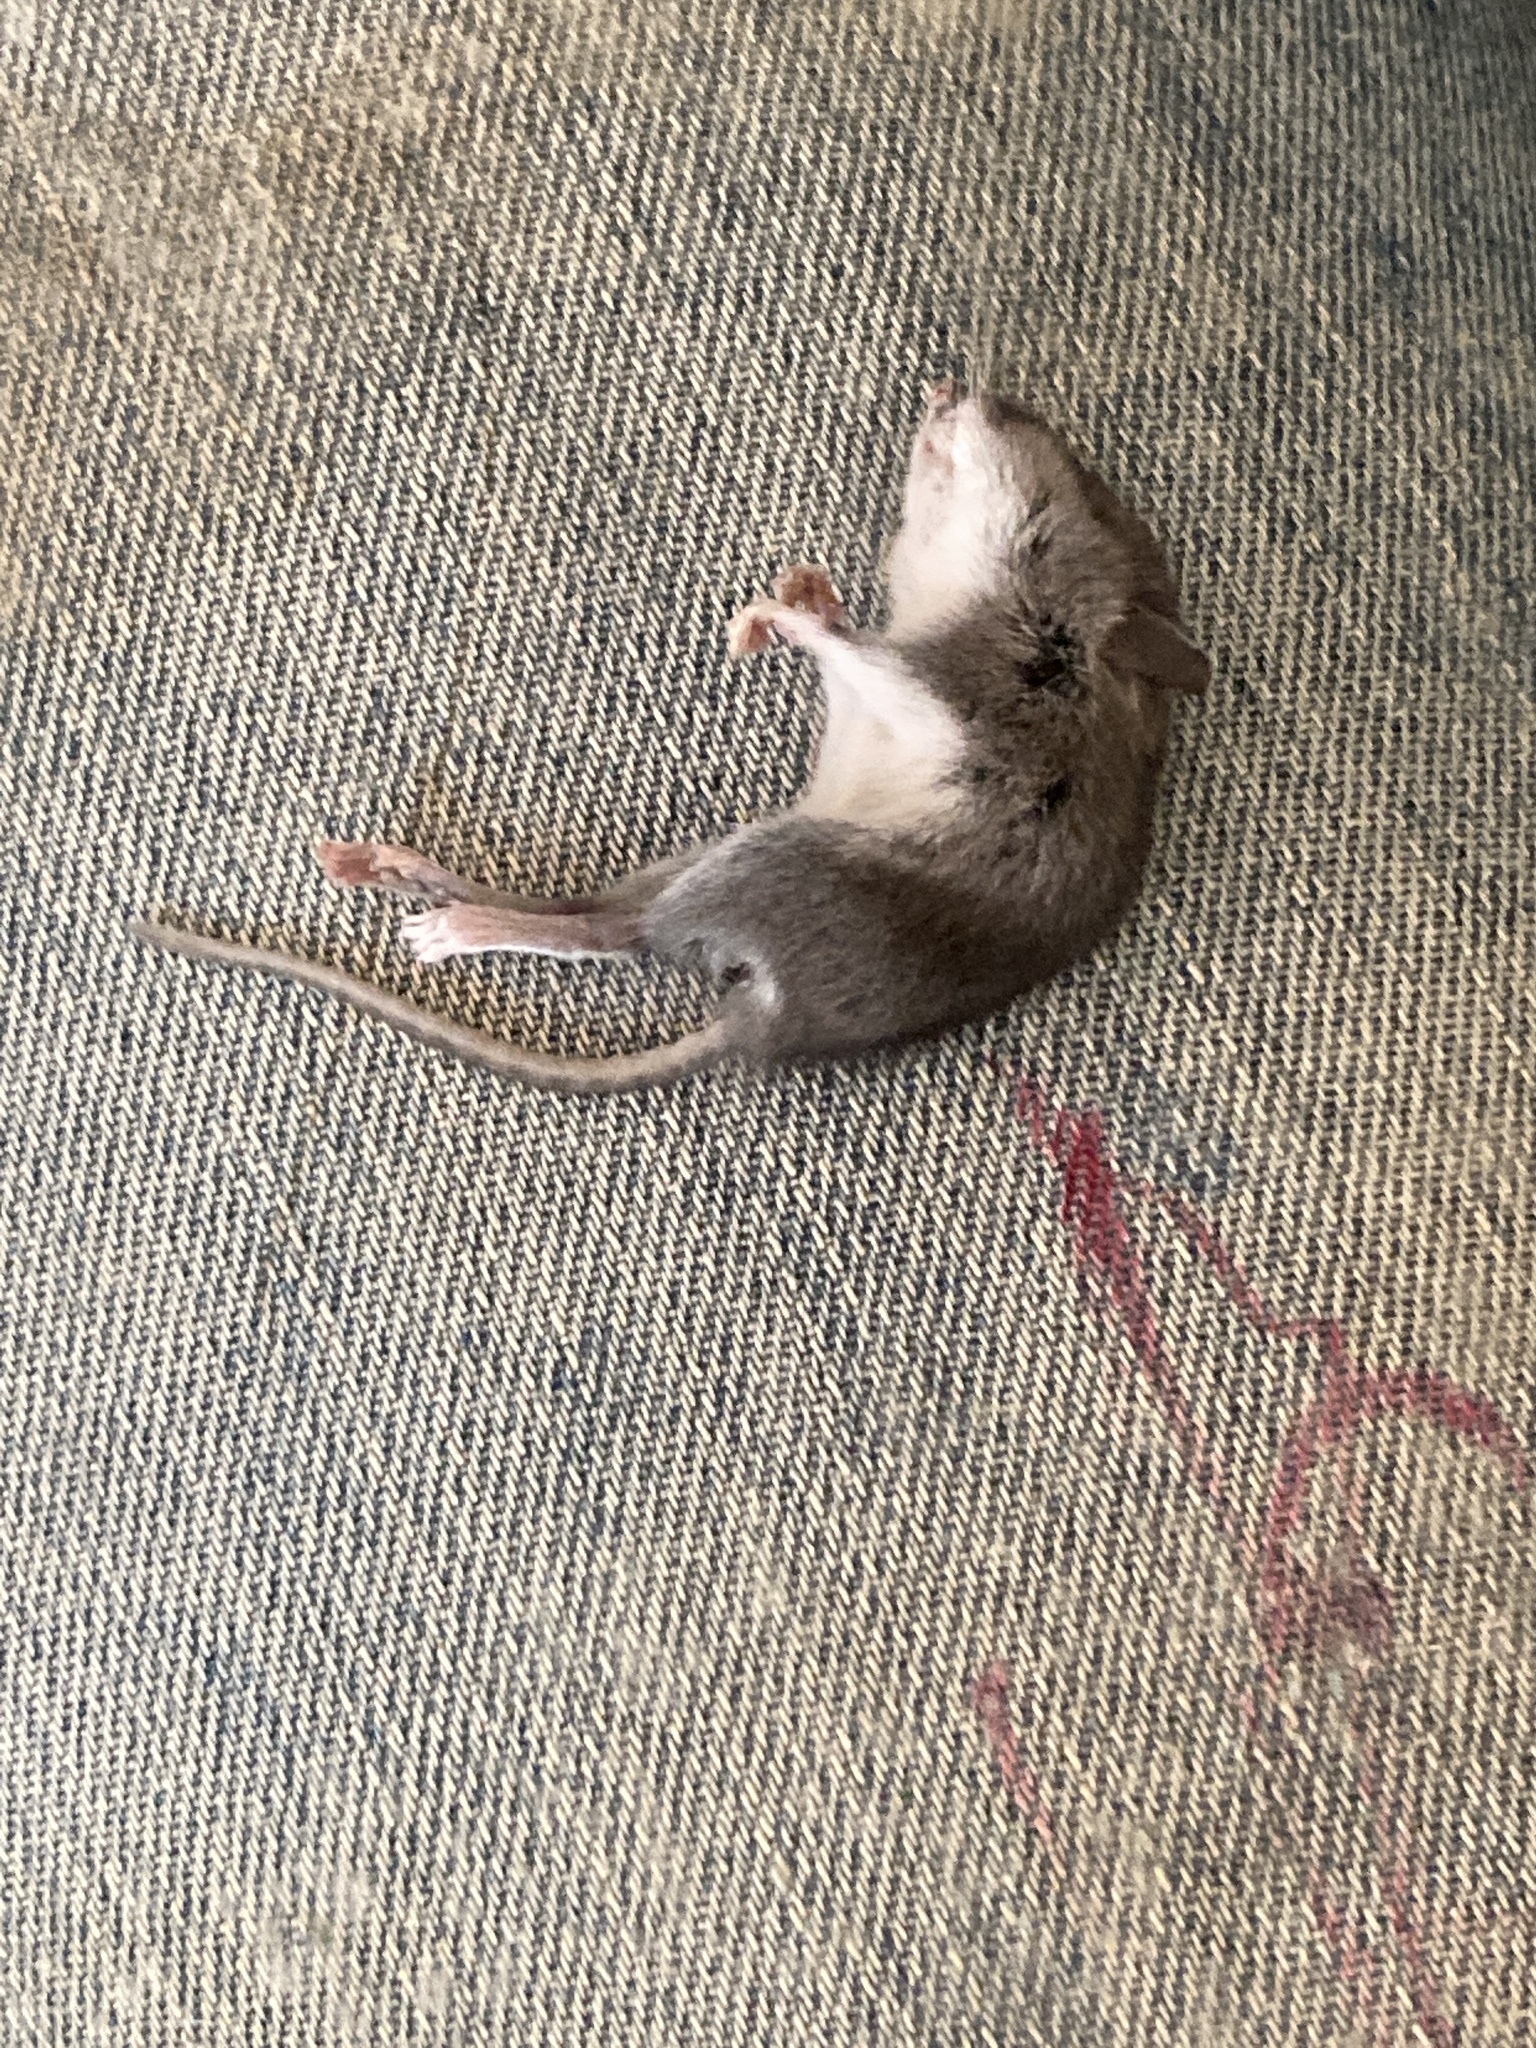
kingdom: Animalia
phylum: Chordata
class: Mammalia
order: Rodentia
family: Cricetidae
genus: Peromyscus
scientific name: Peromyscus leucopus
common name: White-footed deermouse
